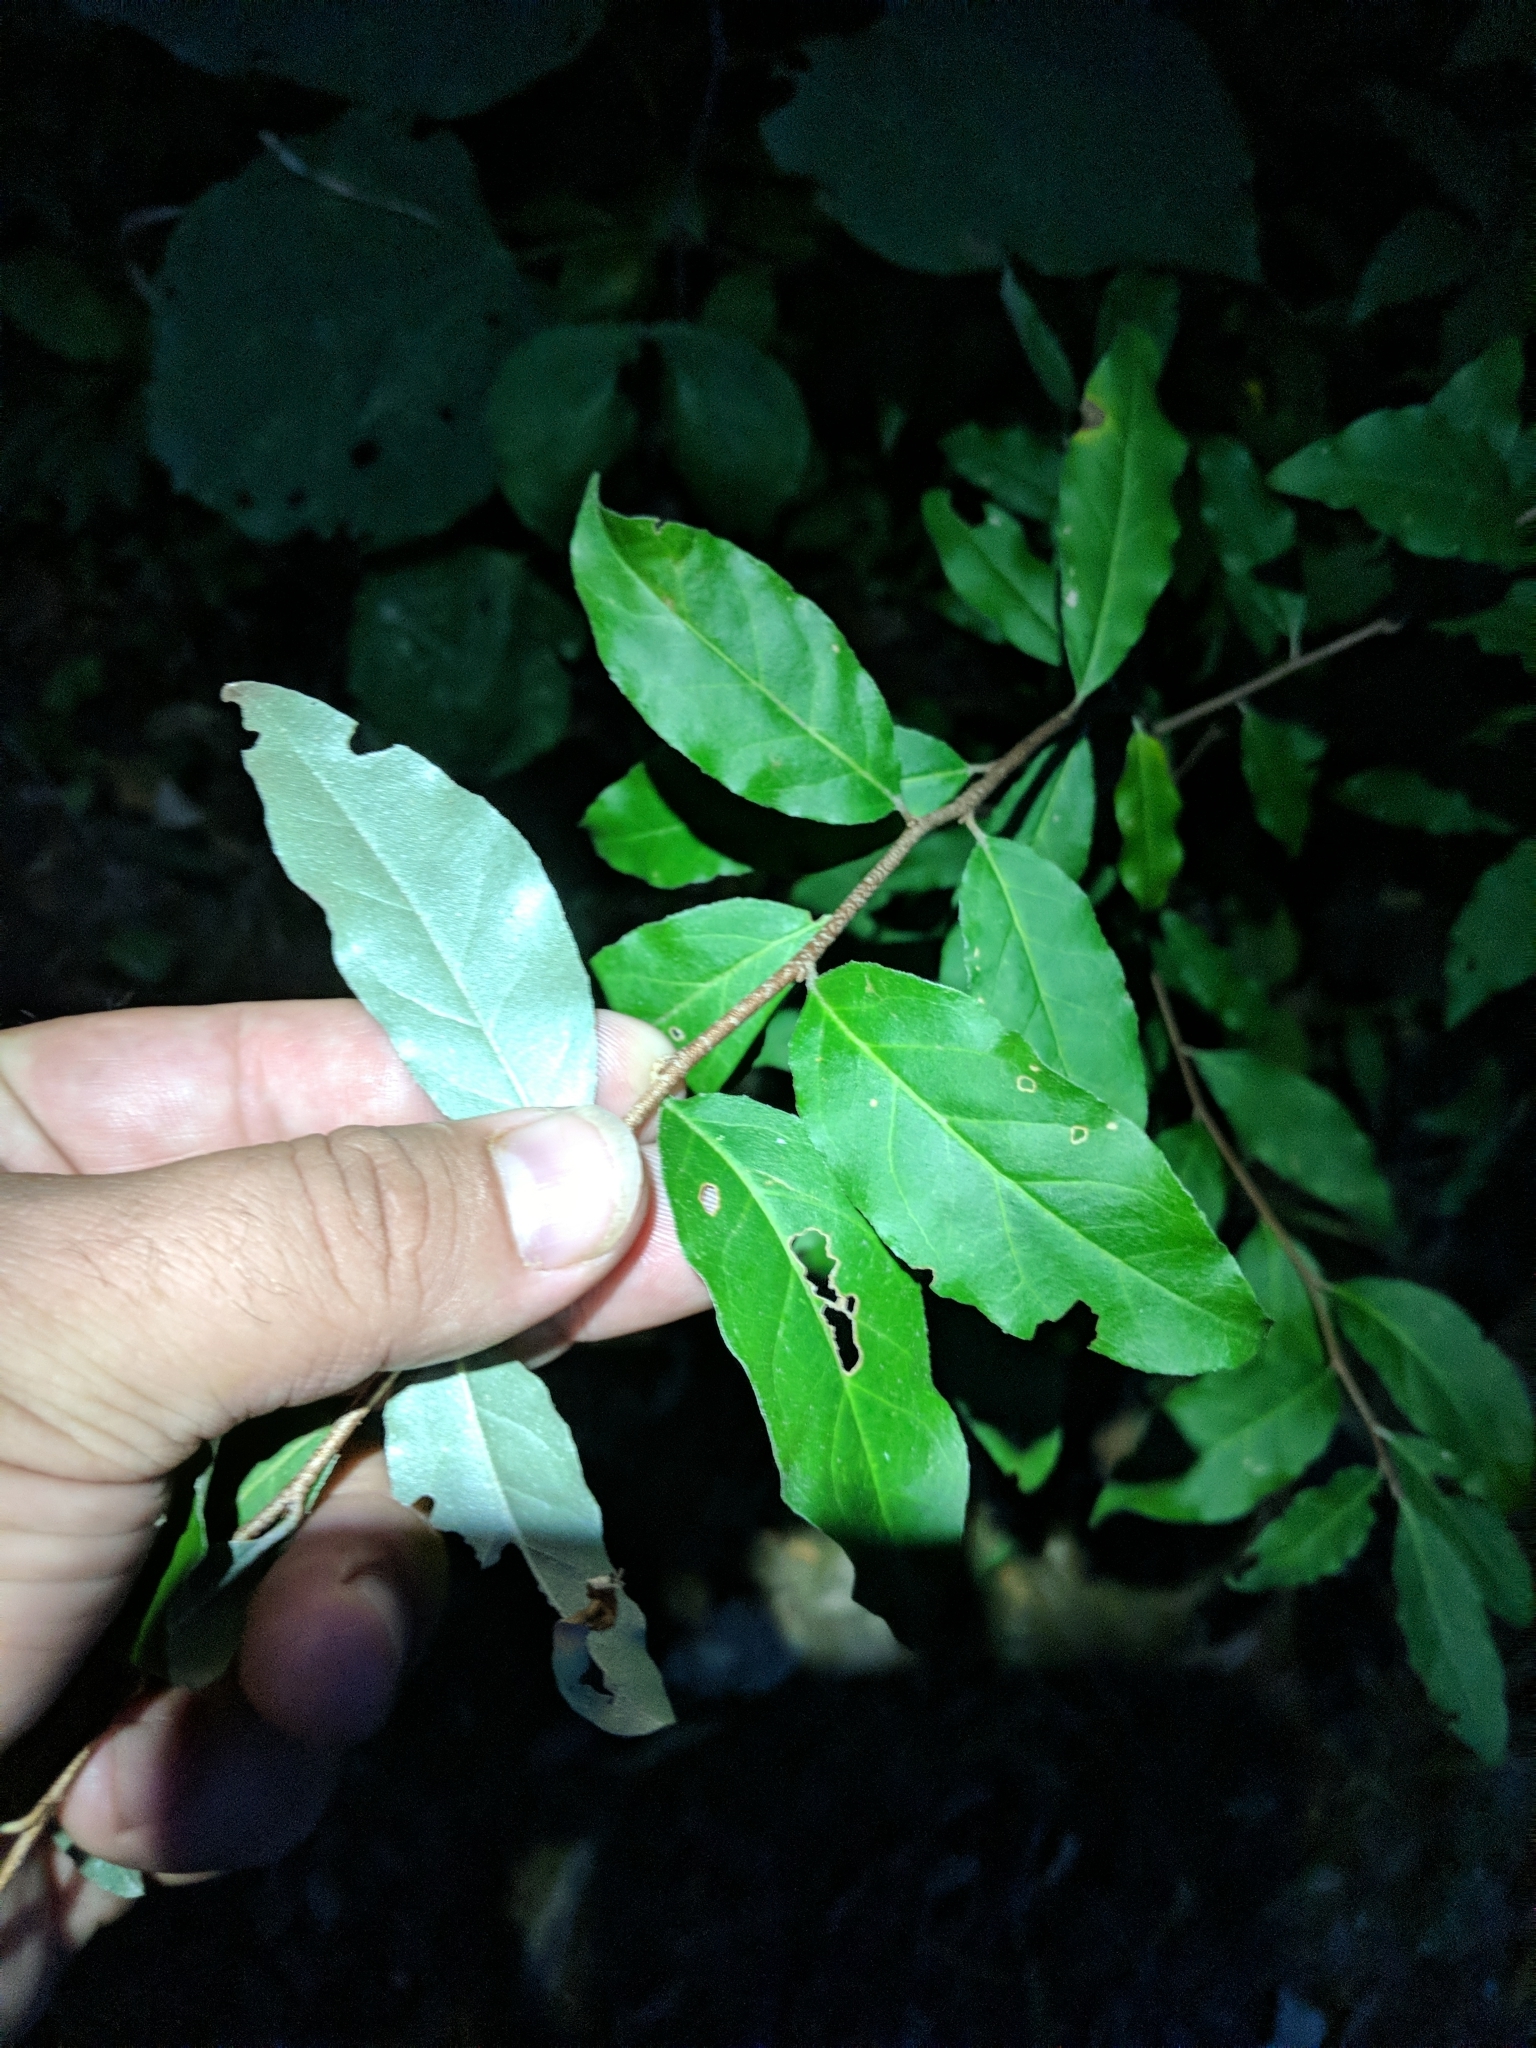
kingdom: Plantae
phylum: Tracheophyta
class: Magnoliopsida
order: Rosales
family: Elaeagnaceae
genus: Elaeagnus
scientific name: Elaeagnus umbellata
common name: Autumn olive
